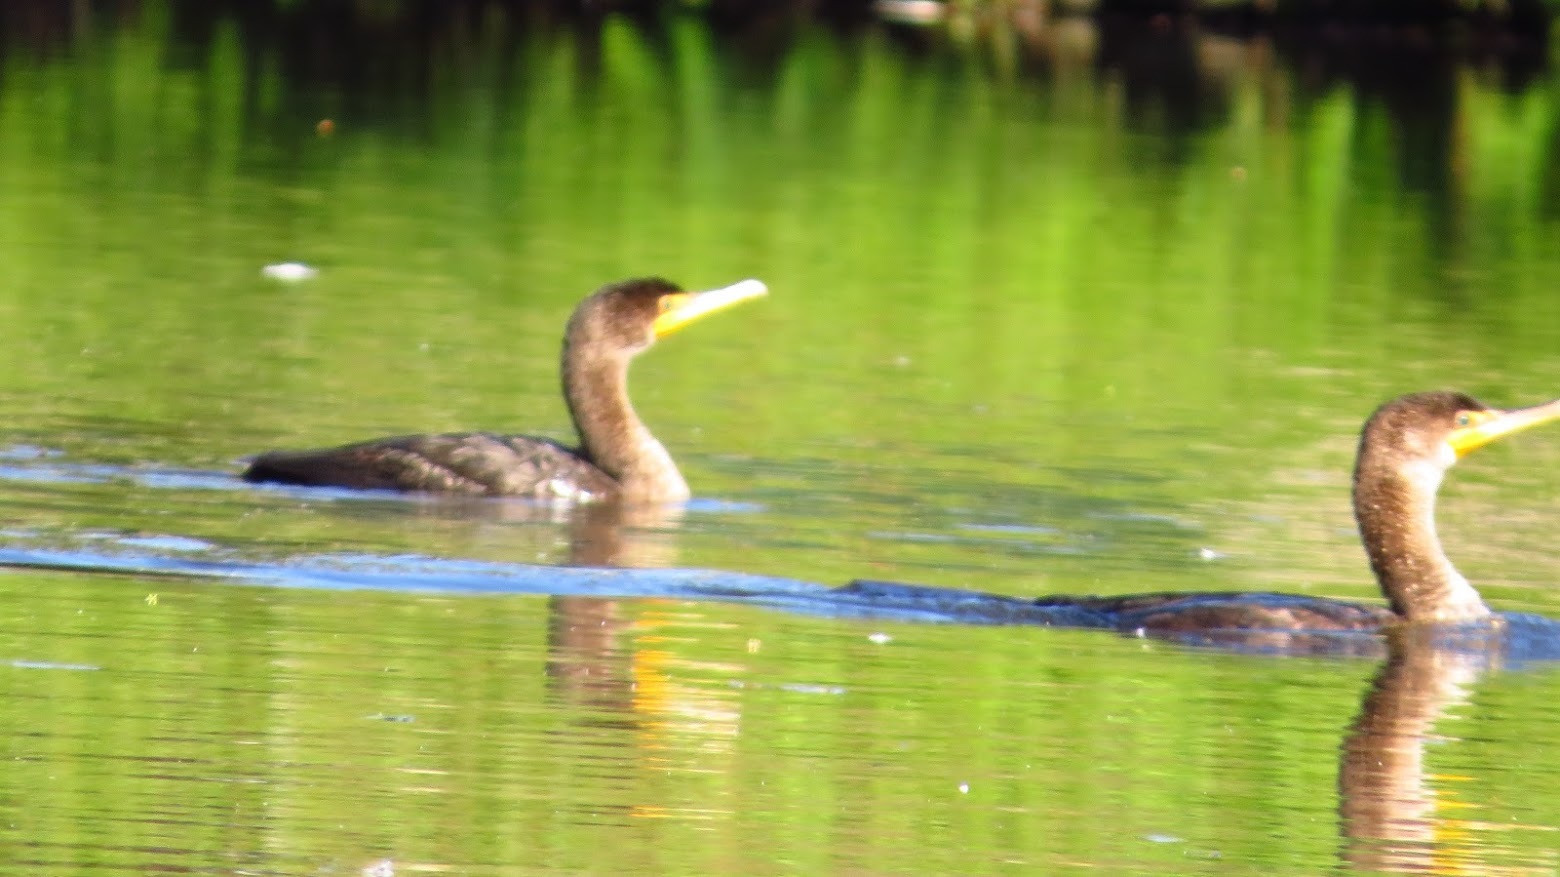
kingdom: Animalia
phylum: Chordata
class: Aves
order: Suliformes
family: Phalacrocoracidae
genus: Phalacrocorax
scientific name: Phalacrocorax auritus
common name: Double-crested cormorant
